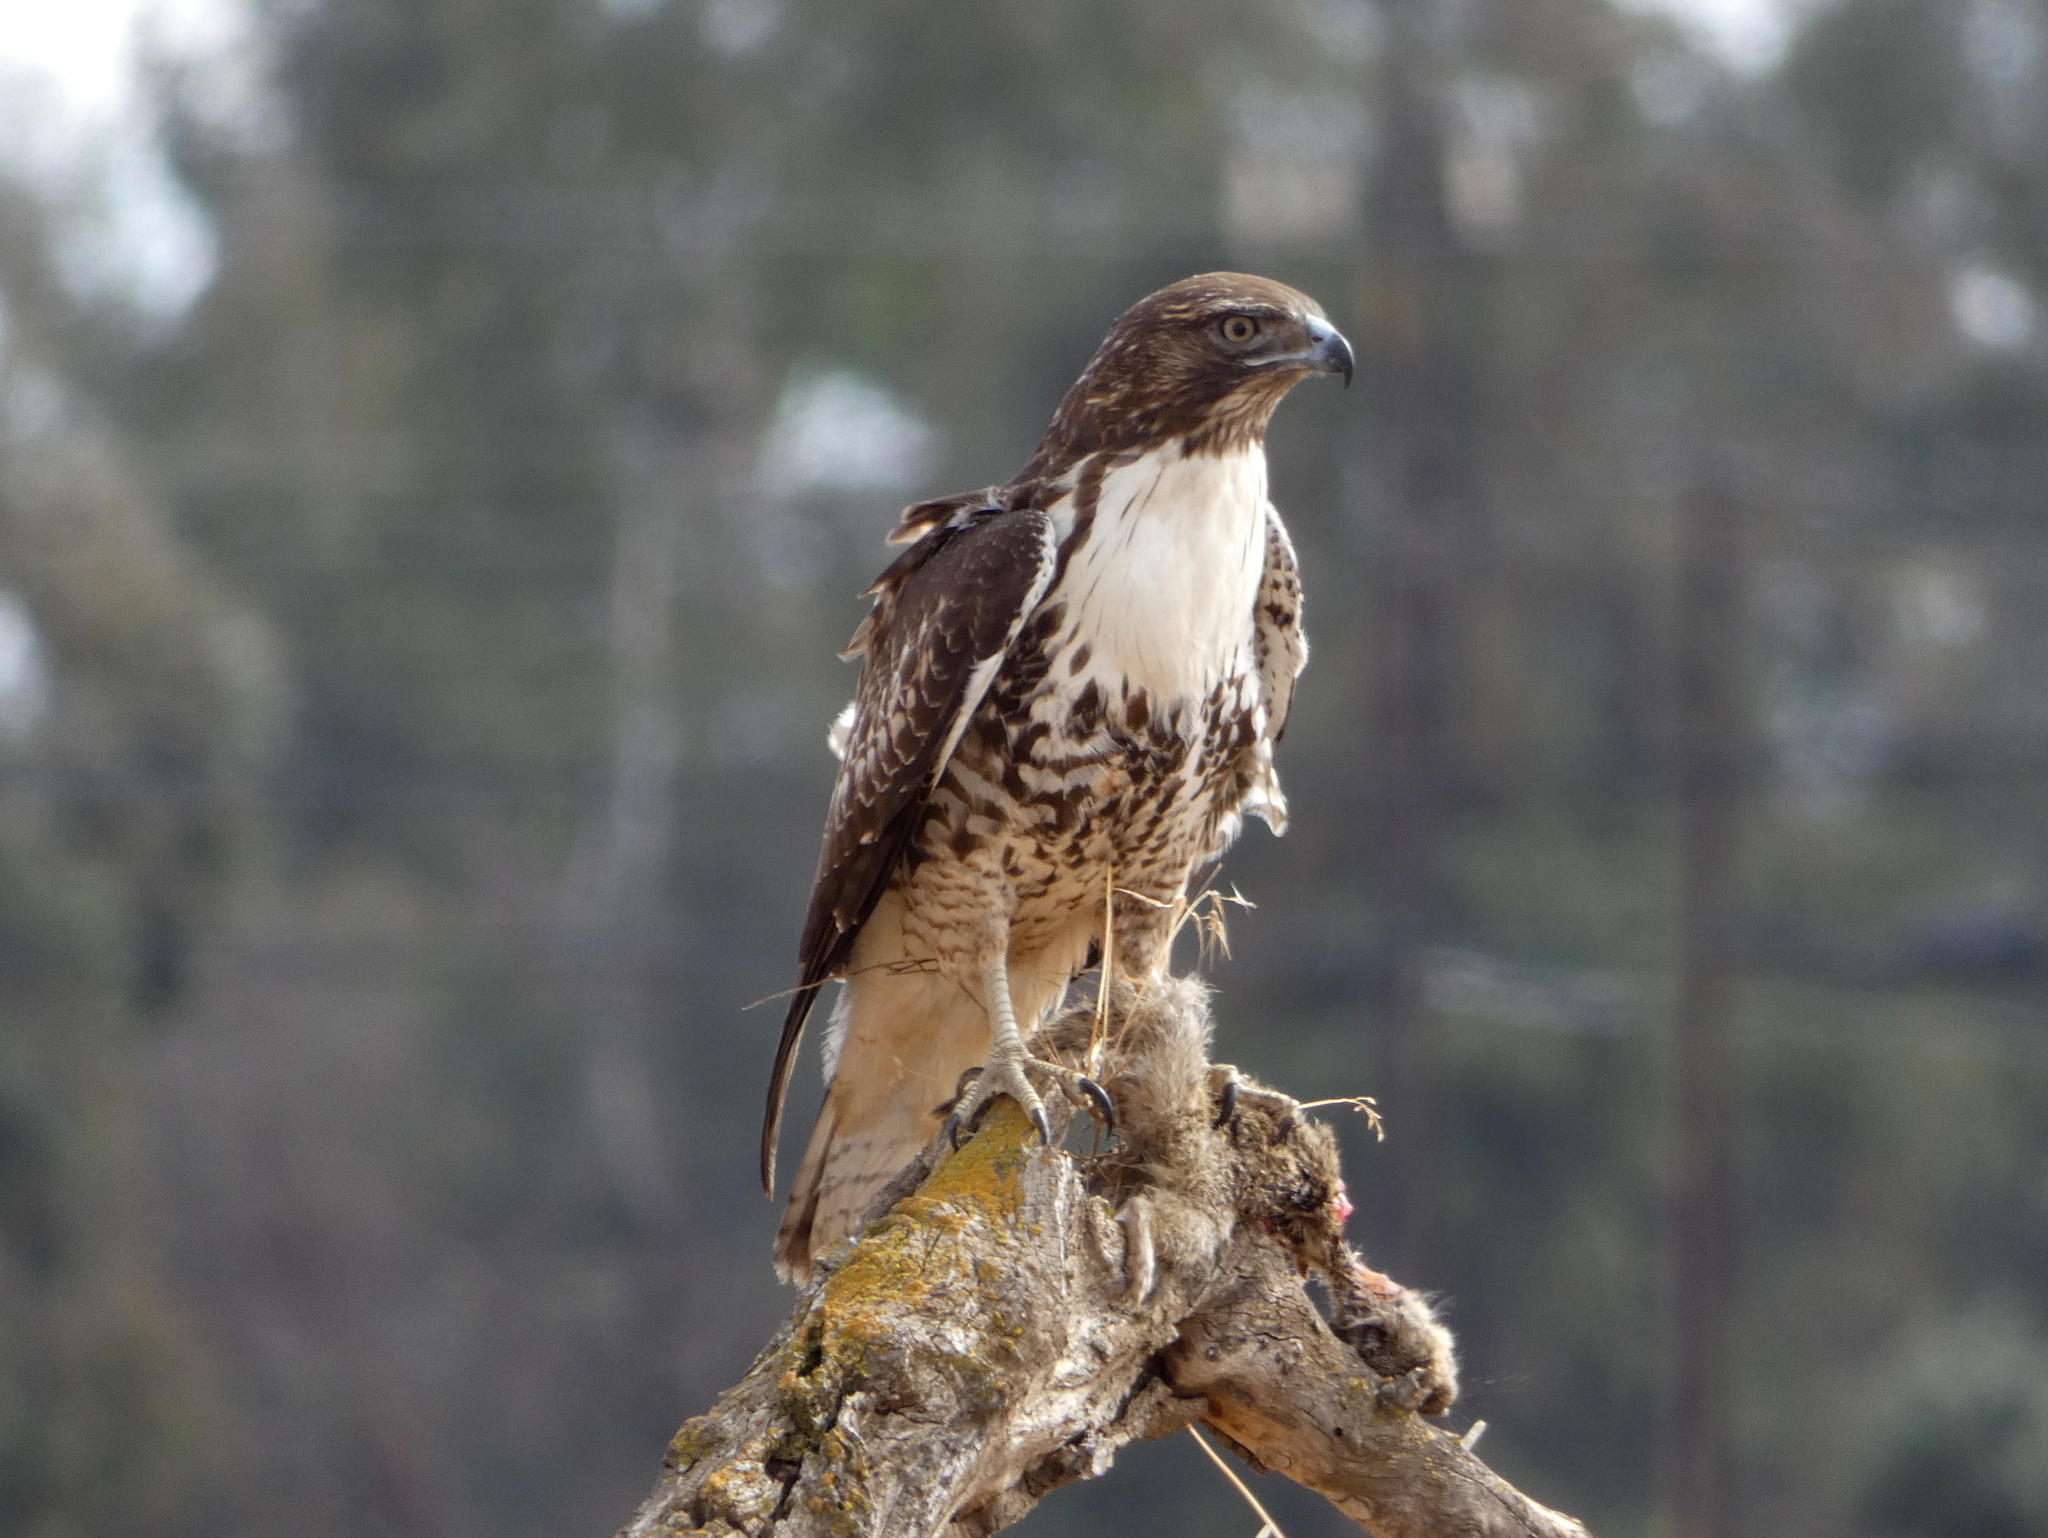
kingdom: Animalia
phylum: Chordata
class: Aves
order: Accipitriformes
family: Accipitridae
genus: Buteo
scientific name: Buteo jamaicensis
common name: Red-tailed hawk
